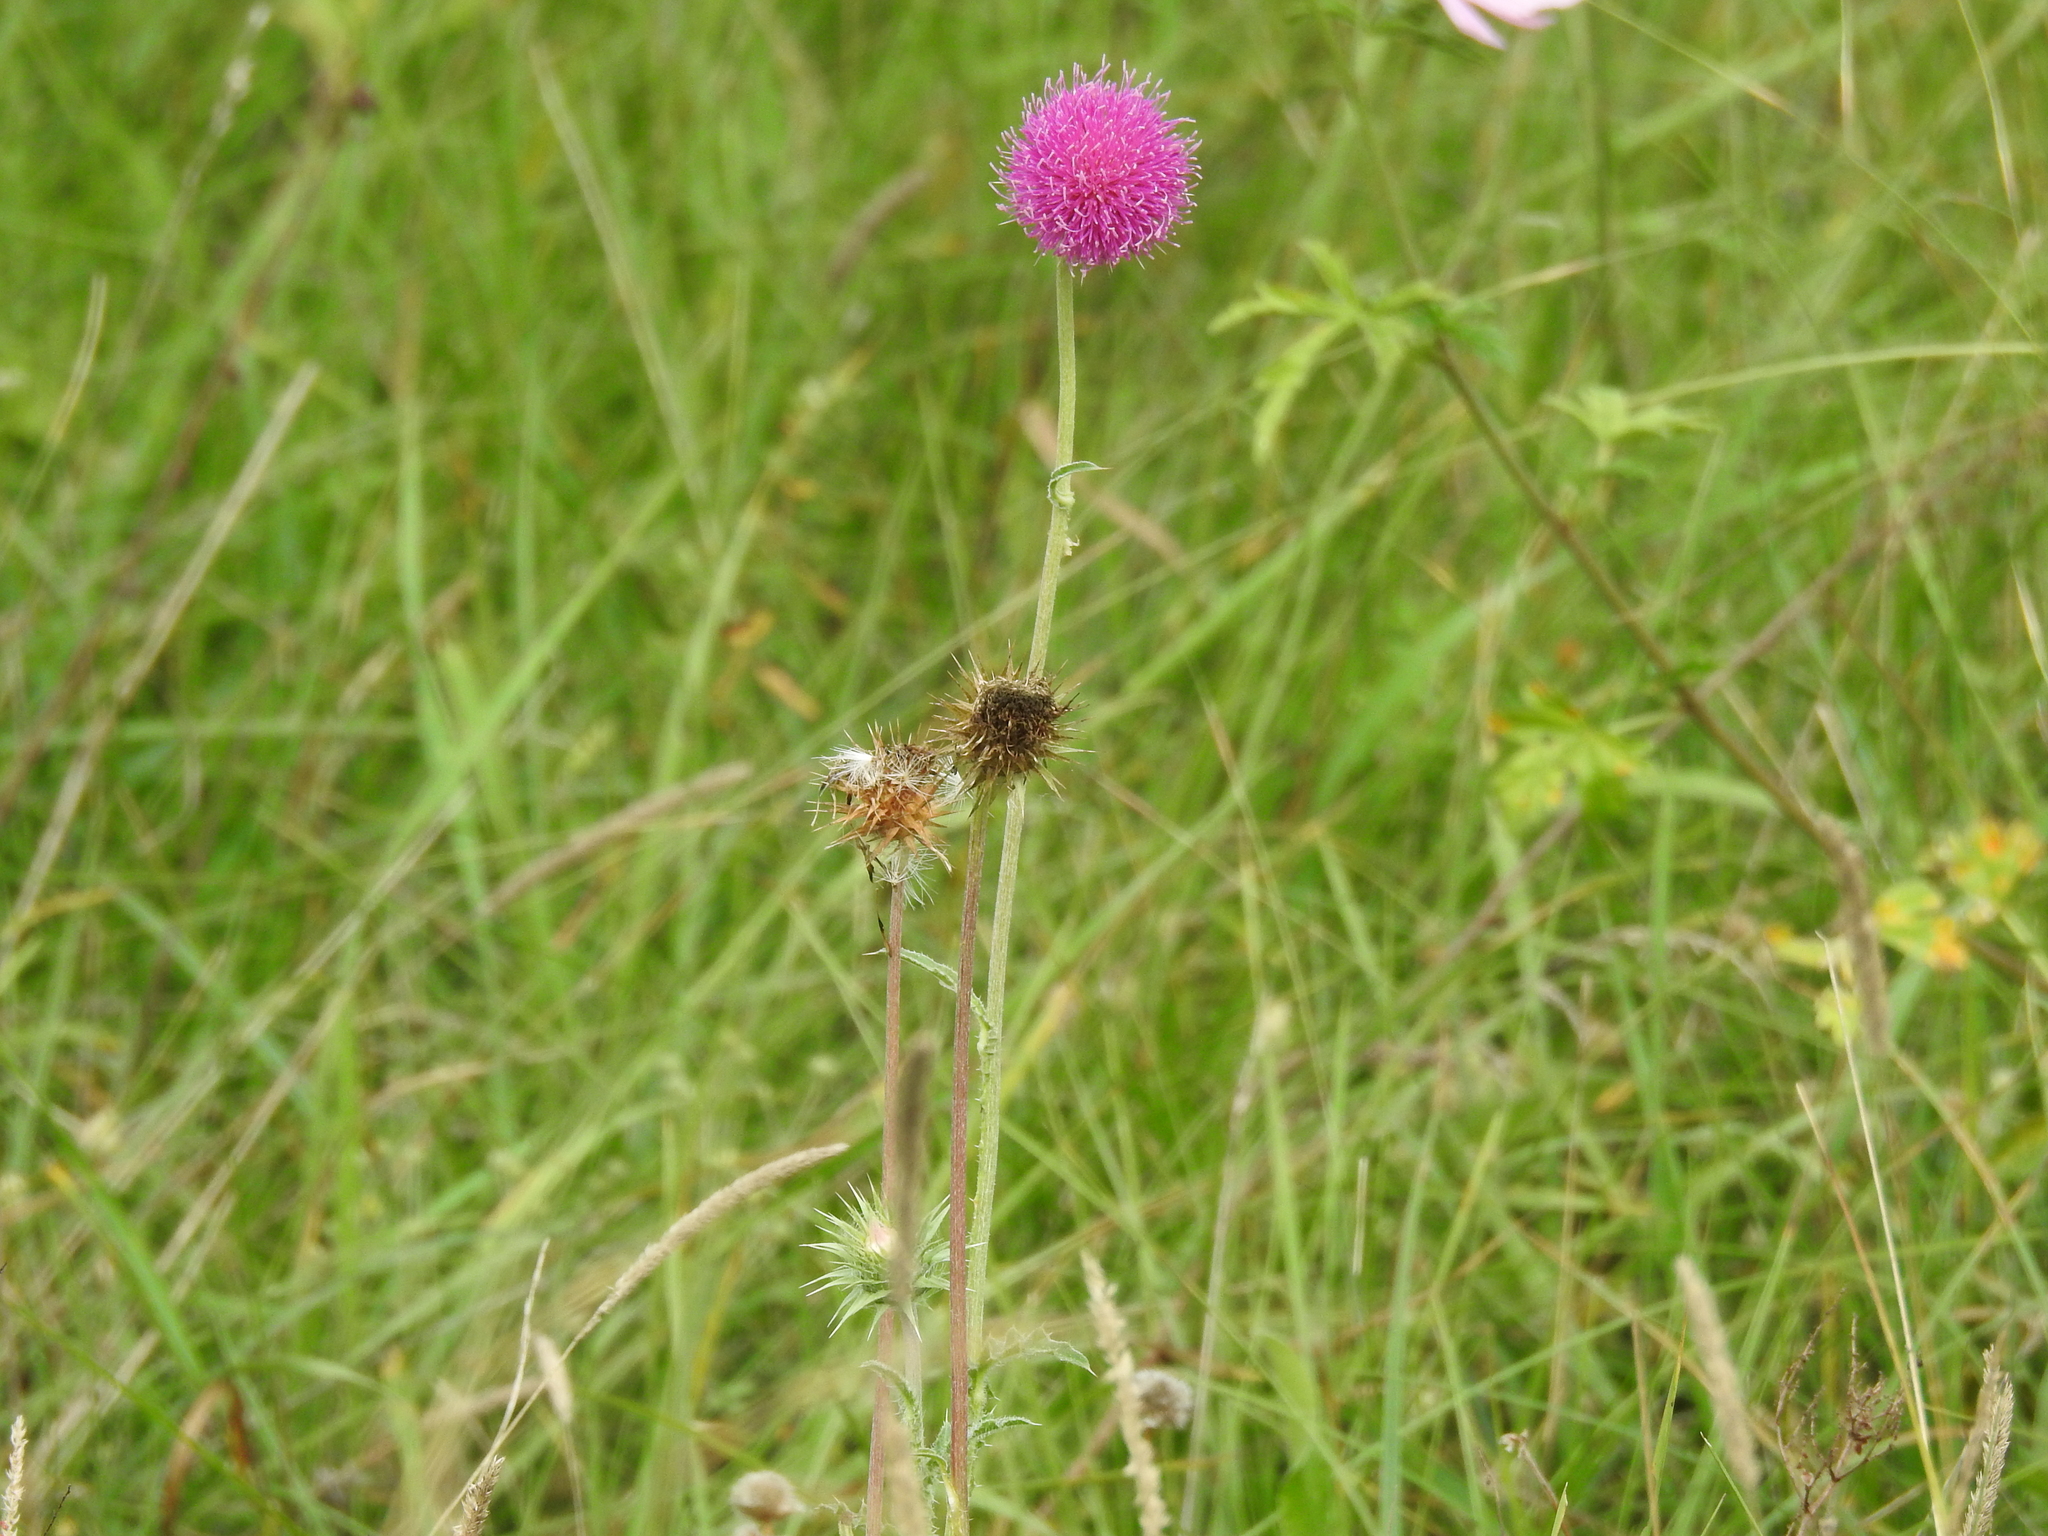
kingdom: Plantae
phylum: Tracheophyta
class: Magnoliopsida
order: Asterales
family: Asteraceae
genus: Carduus
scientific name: Carduus nutans
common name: Musk thistle
